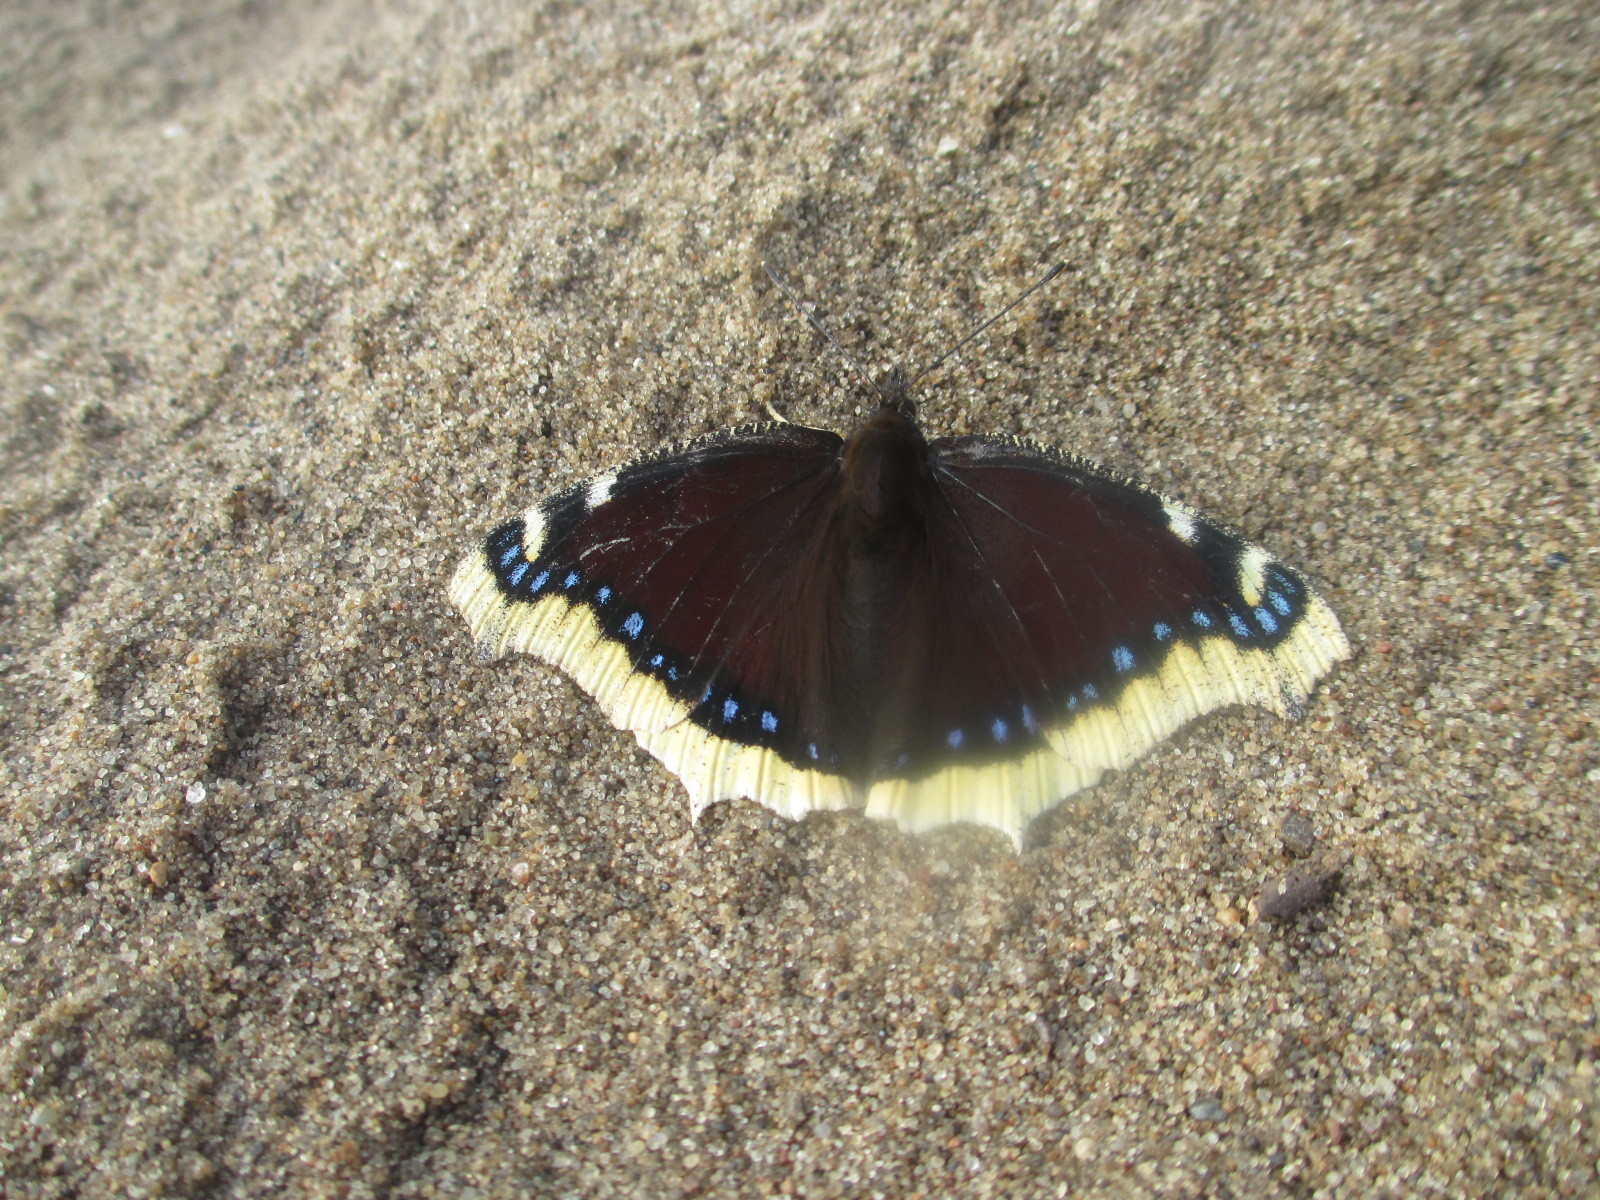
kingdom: Animalia
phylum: Arthropoda
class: Insecta
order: Lepidoptera
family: Nymphalidae
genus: Nymphalis
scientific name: Nymphalis antiopa
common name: Camberwell beauty
